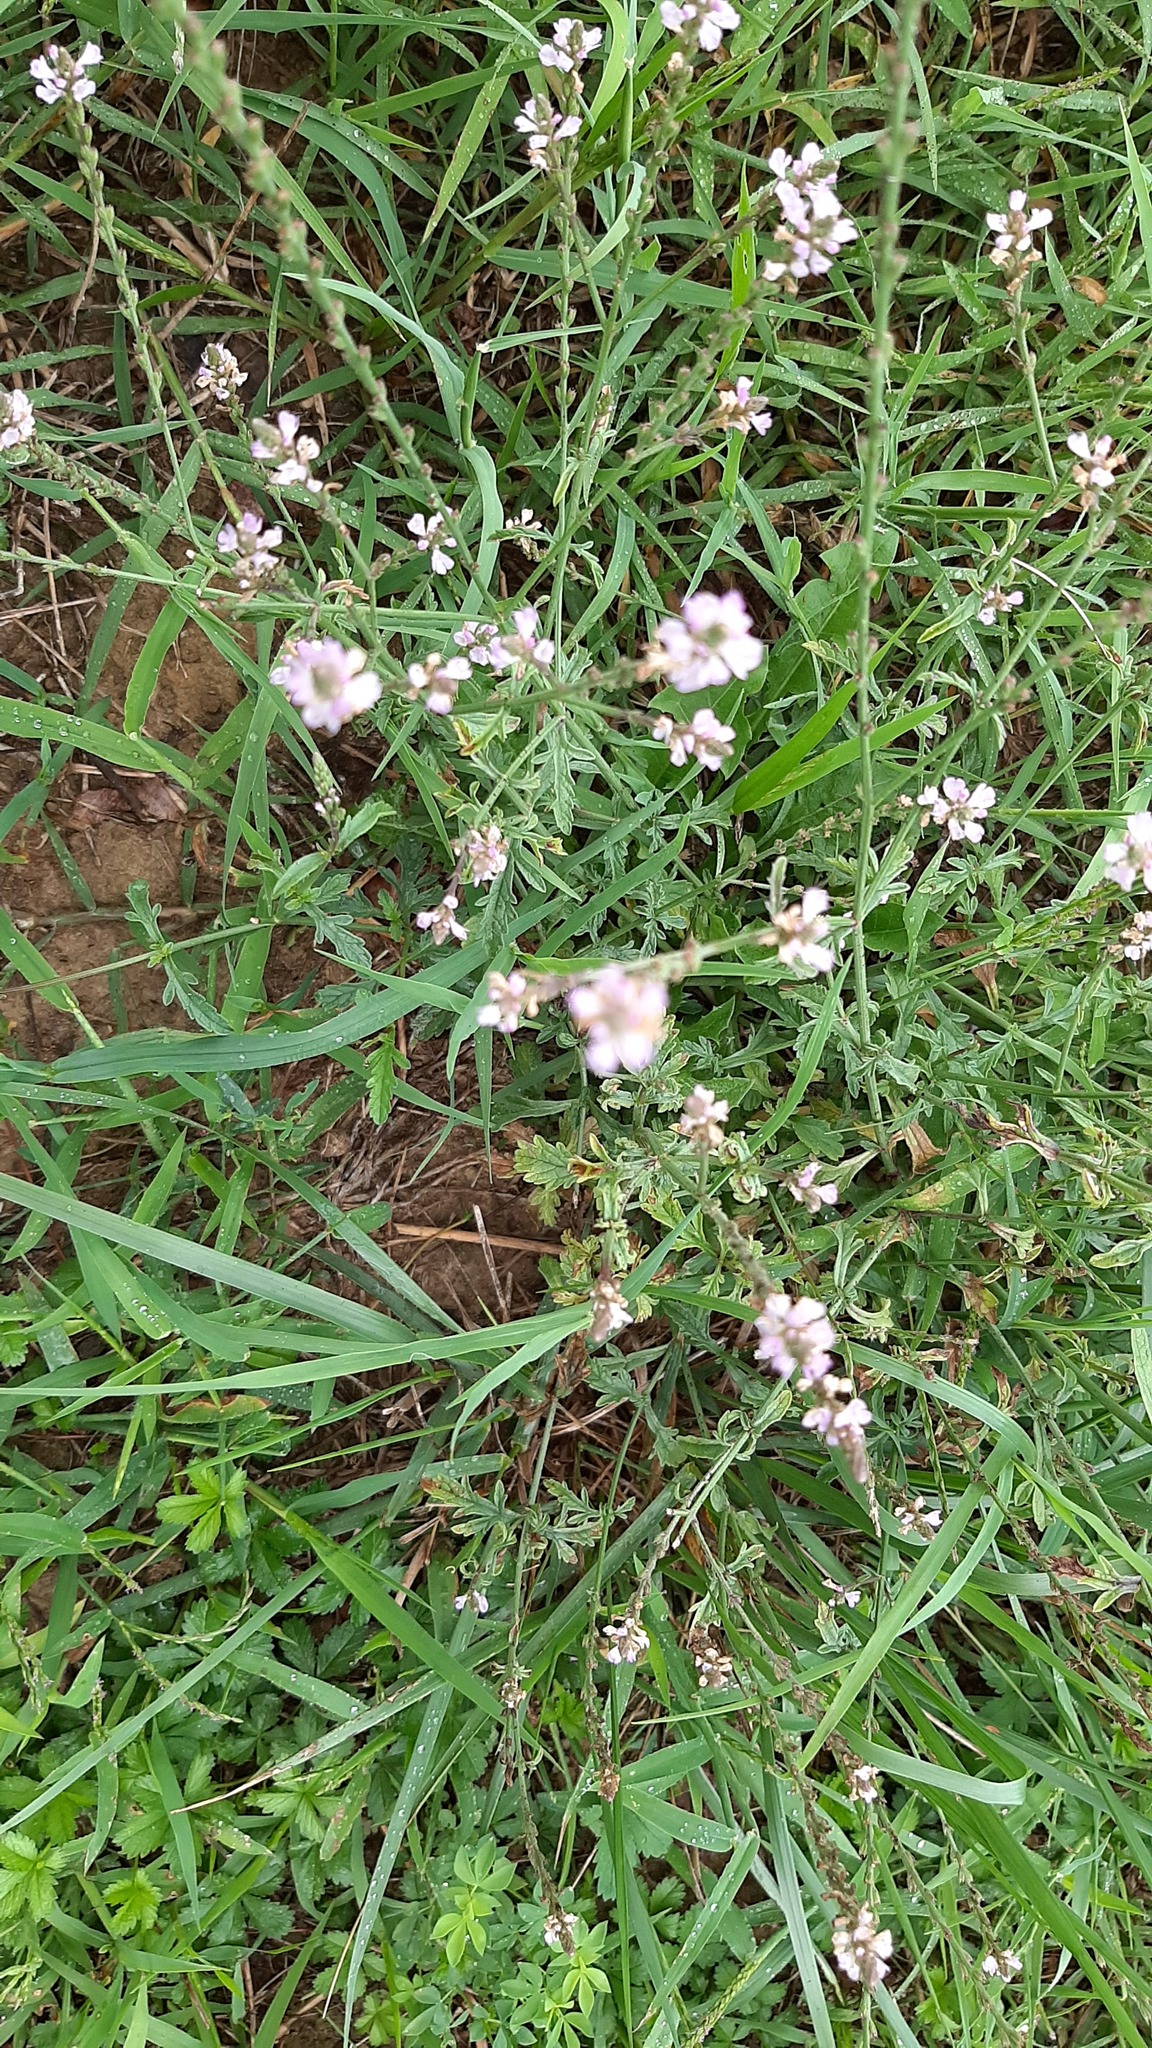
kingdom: Plantae
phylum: Tracheophyta
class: Magnoliopsida
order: Lamiales
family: Verbenaceae
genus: Verbena
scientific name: Verbena officinalis
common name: Vervain
